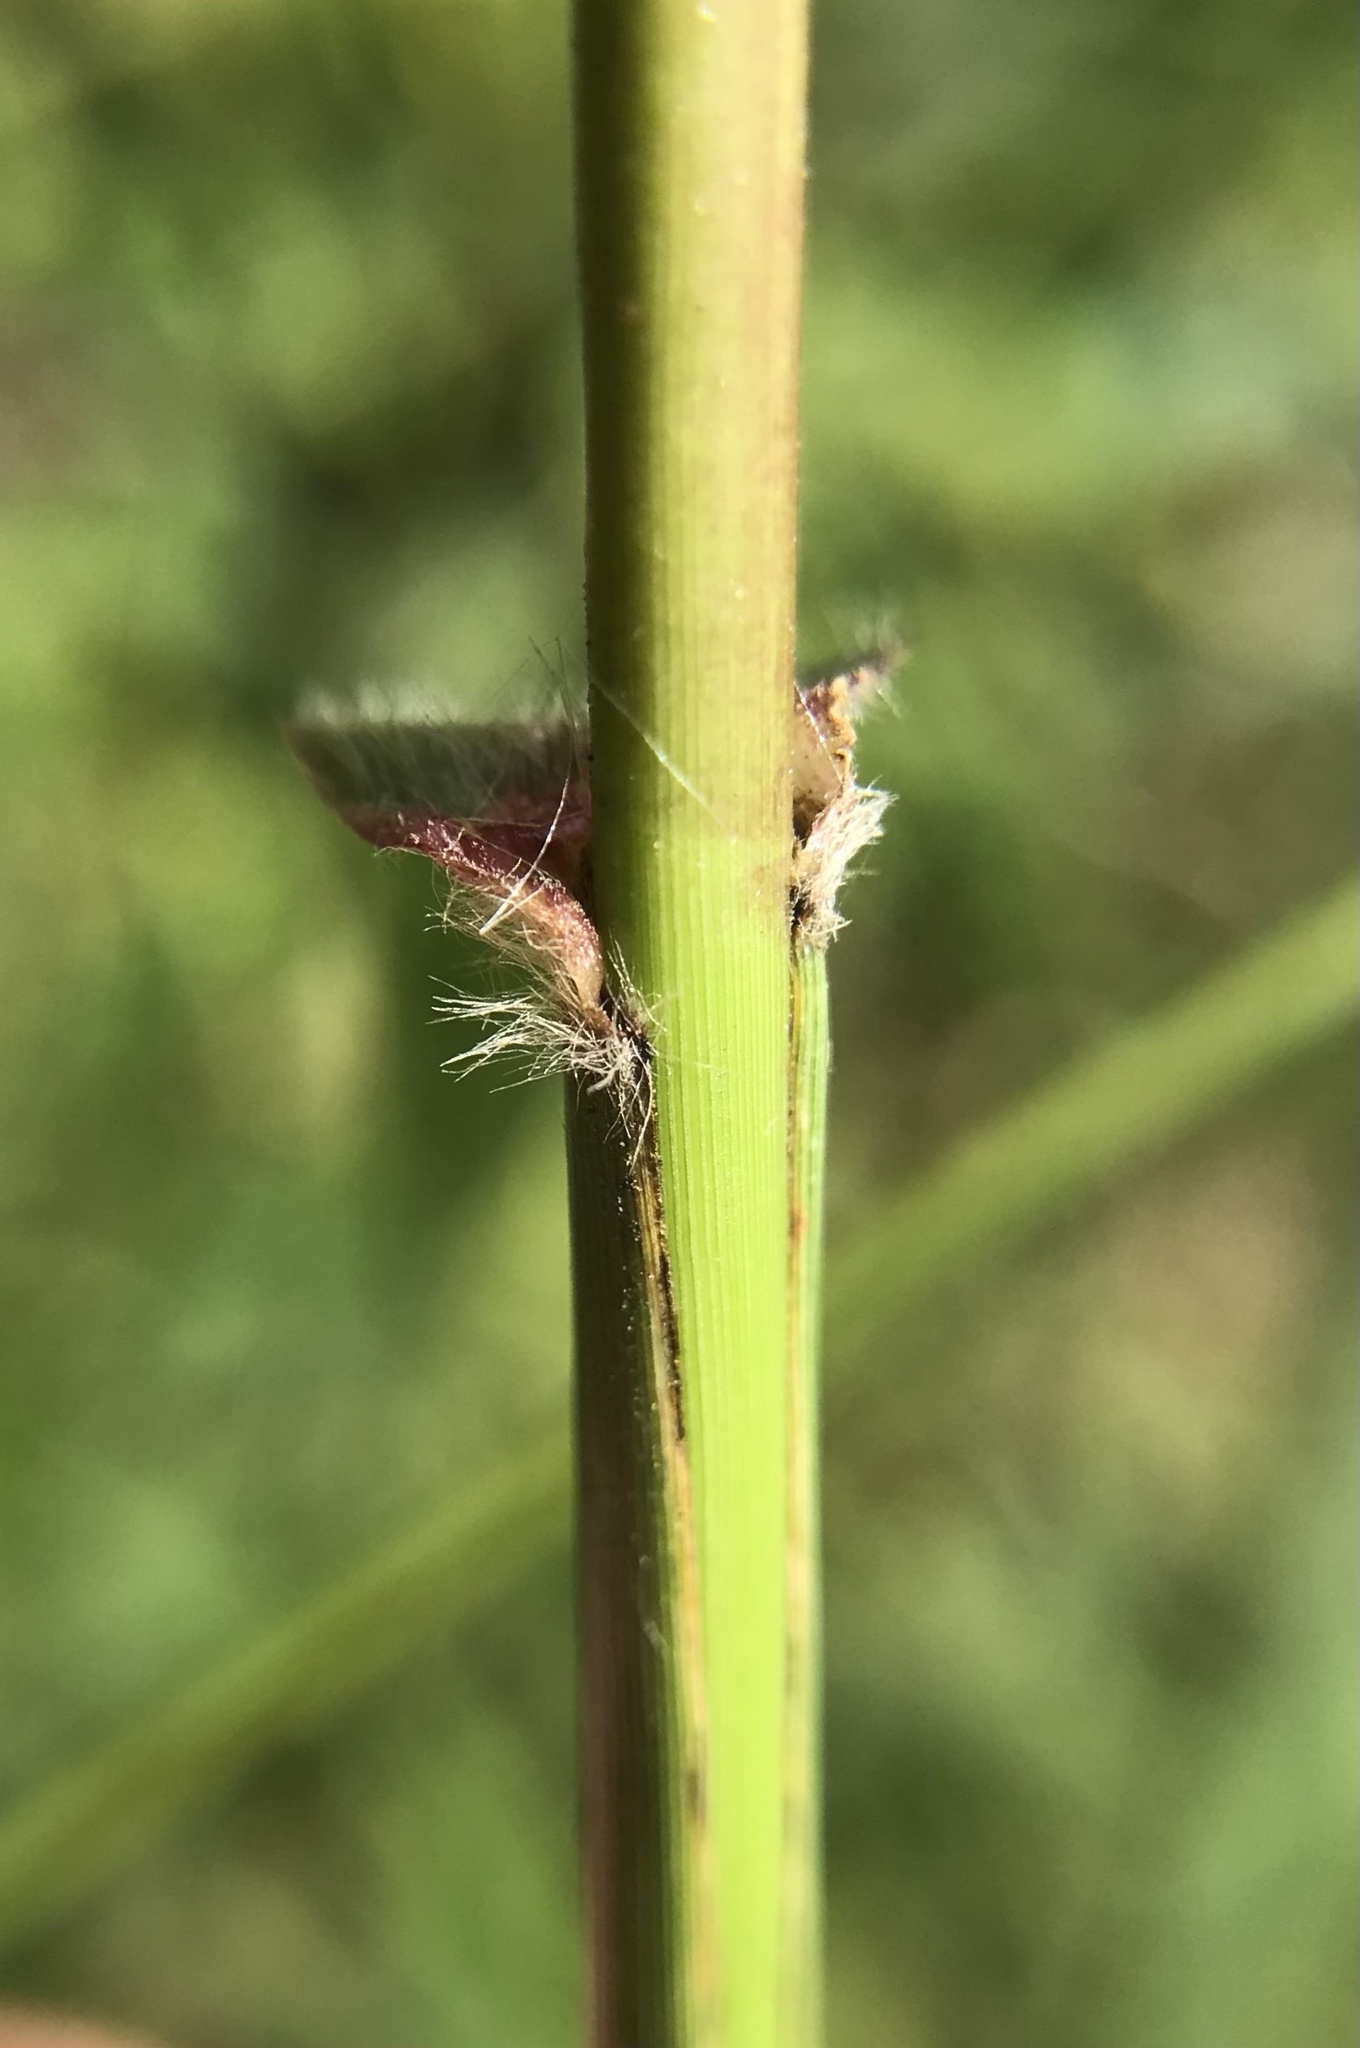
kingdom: Plantae
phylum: Tracheophyta
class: Liliopsida
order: Poales
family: Poaceae
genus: Tridens
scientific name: Tridens flavus
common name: Purpletop
